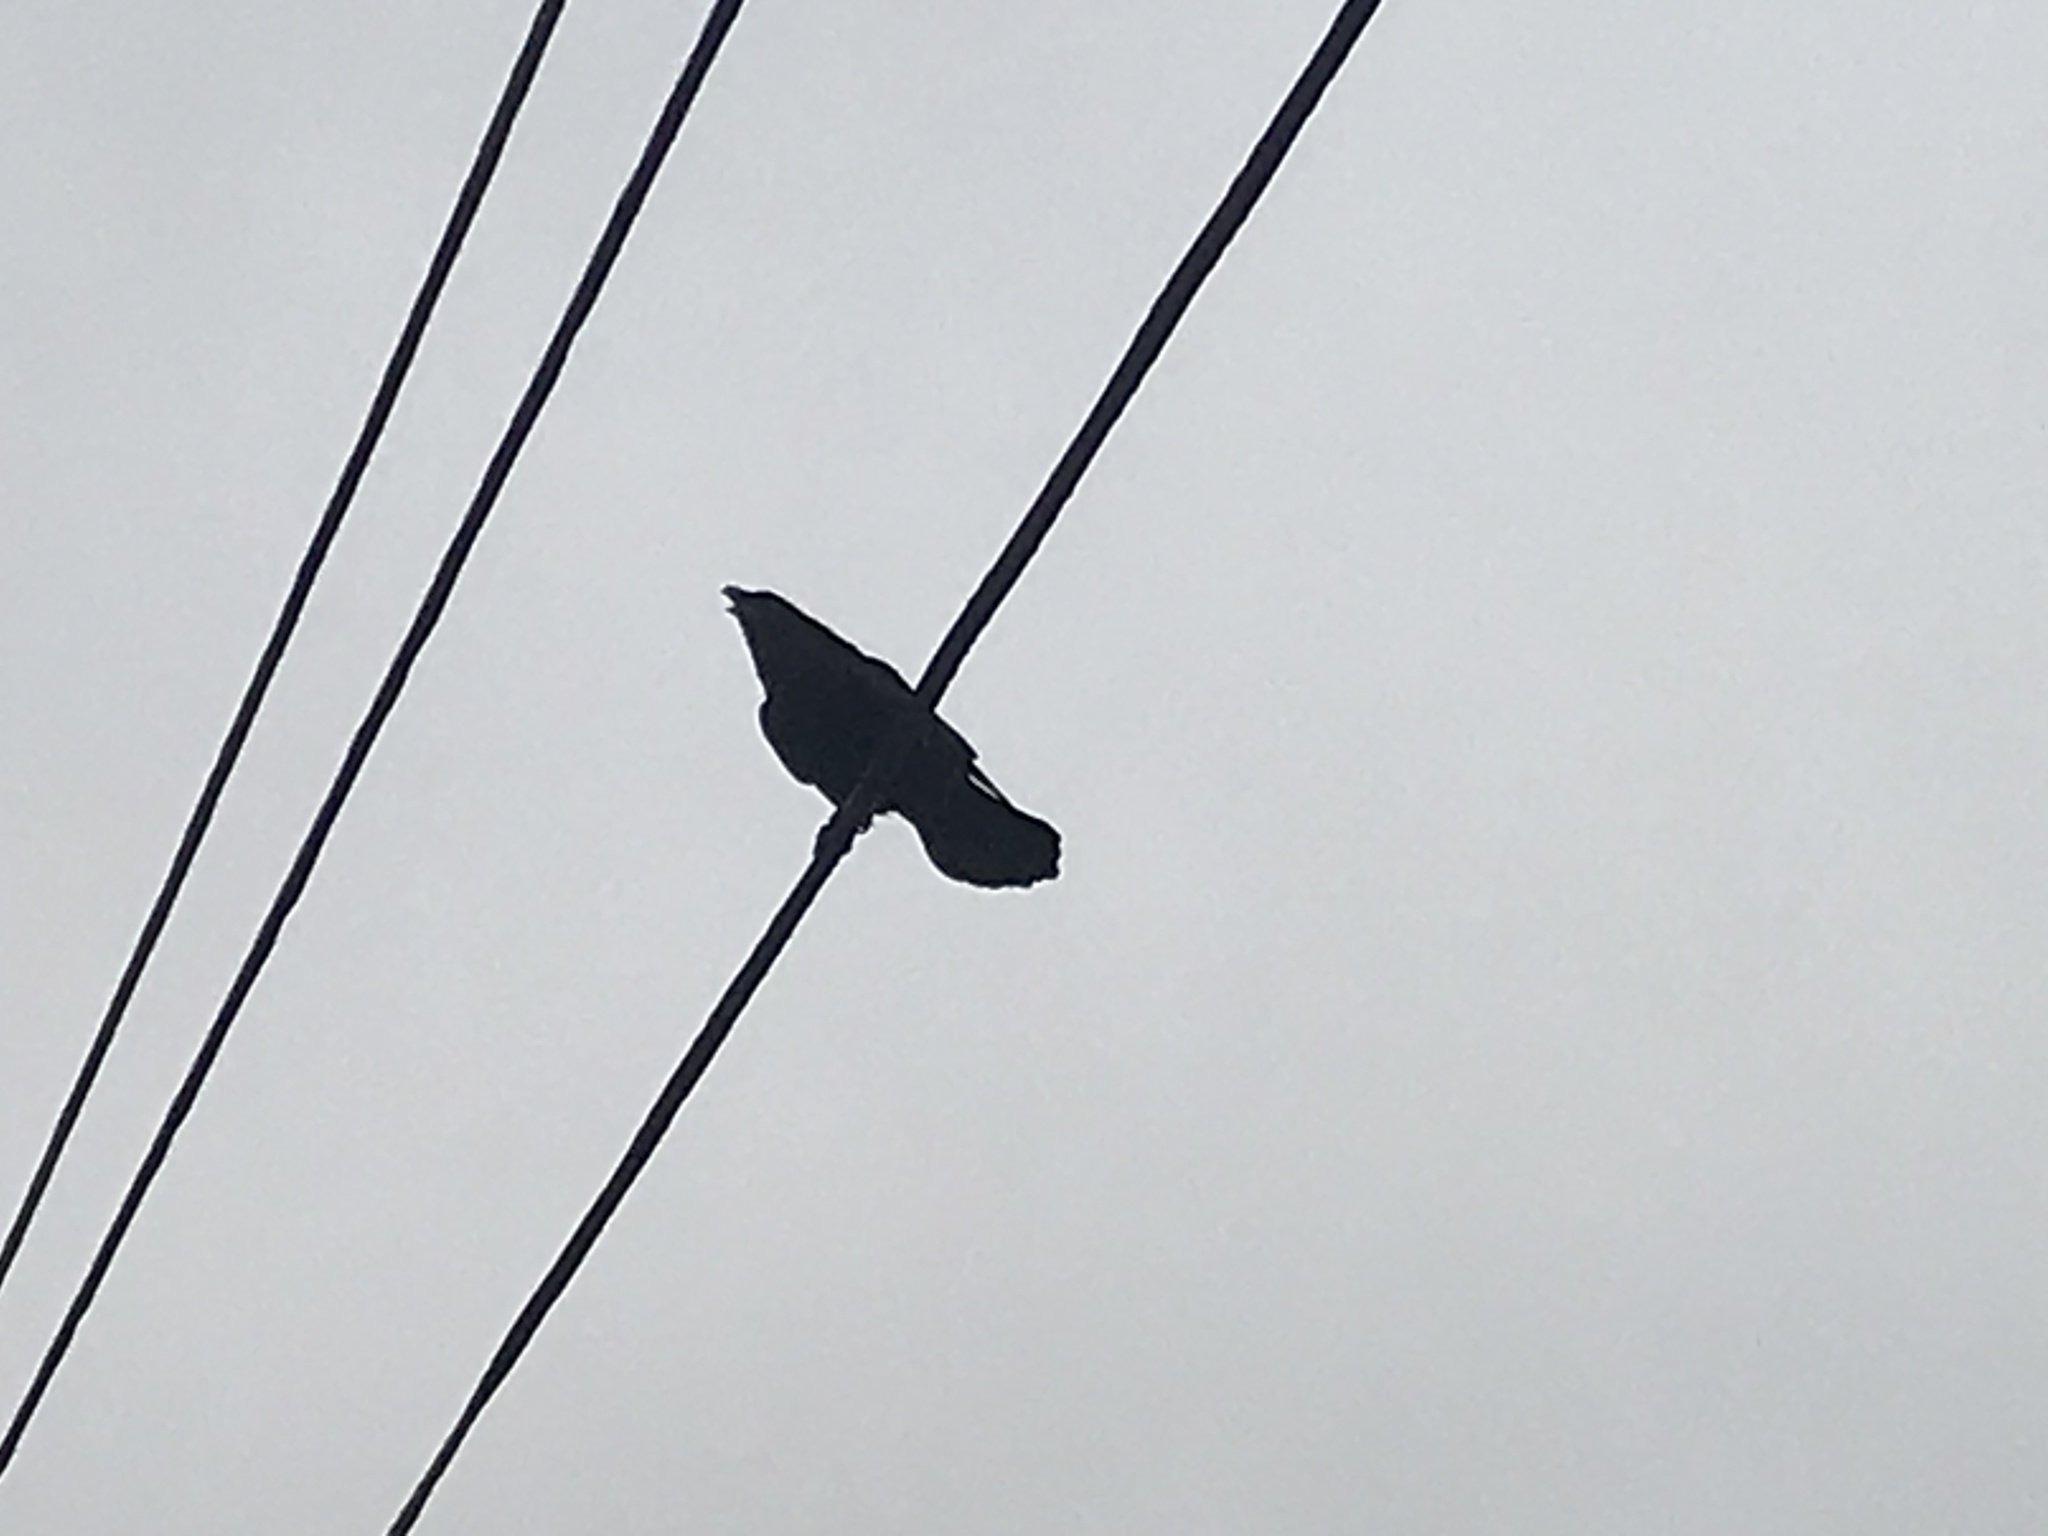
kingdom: Animalia
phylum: Chordata
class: Aves
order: Passeriformes
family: Corvidae
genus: Corvus
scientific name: Corvus corax
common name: Common raven
